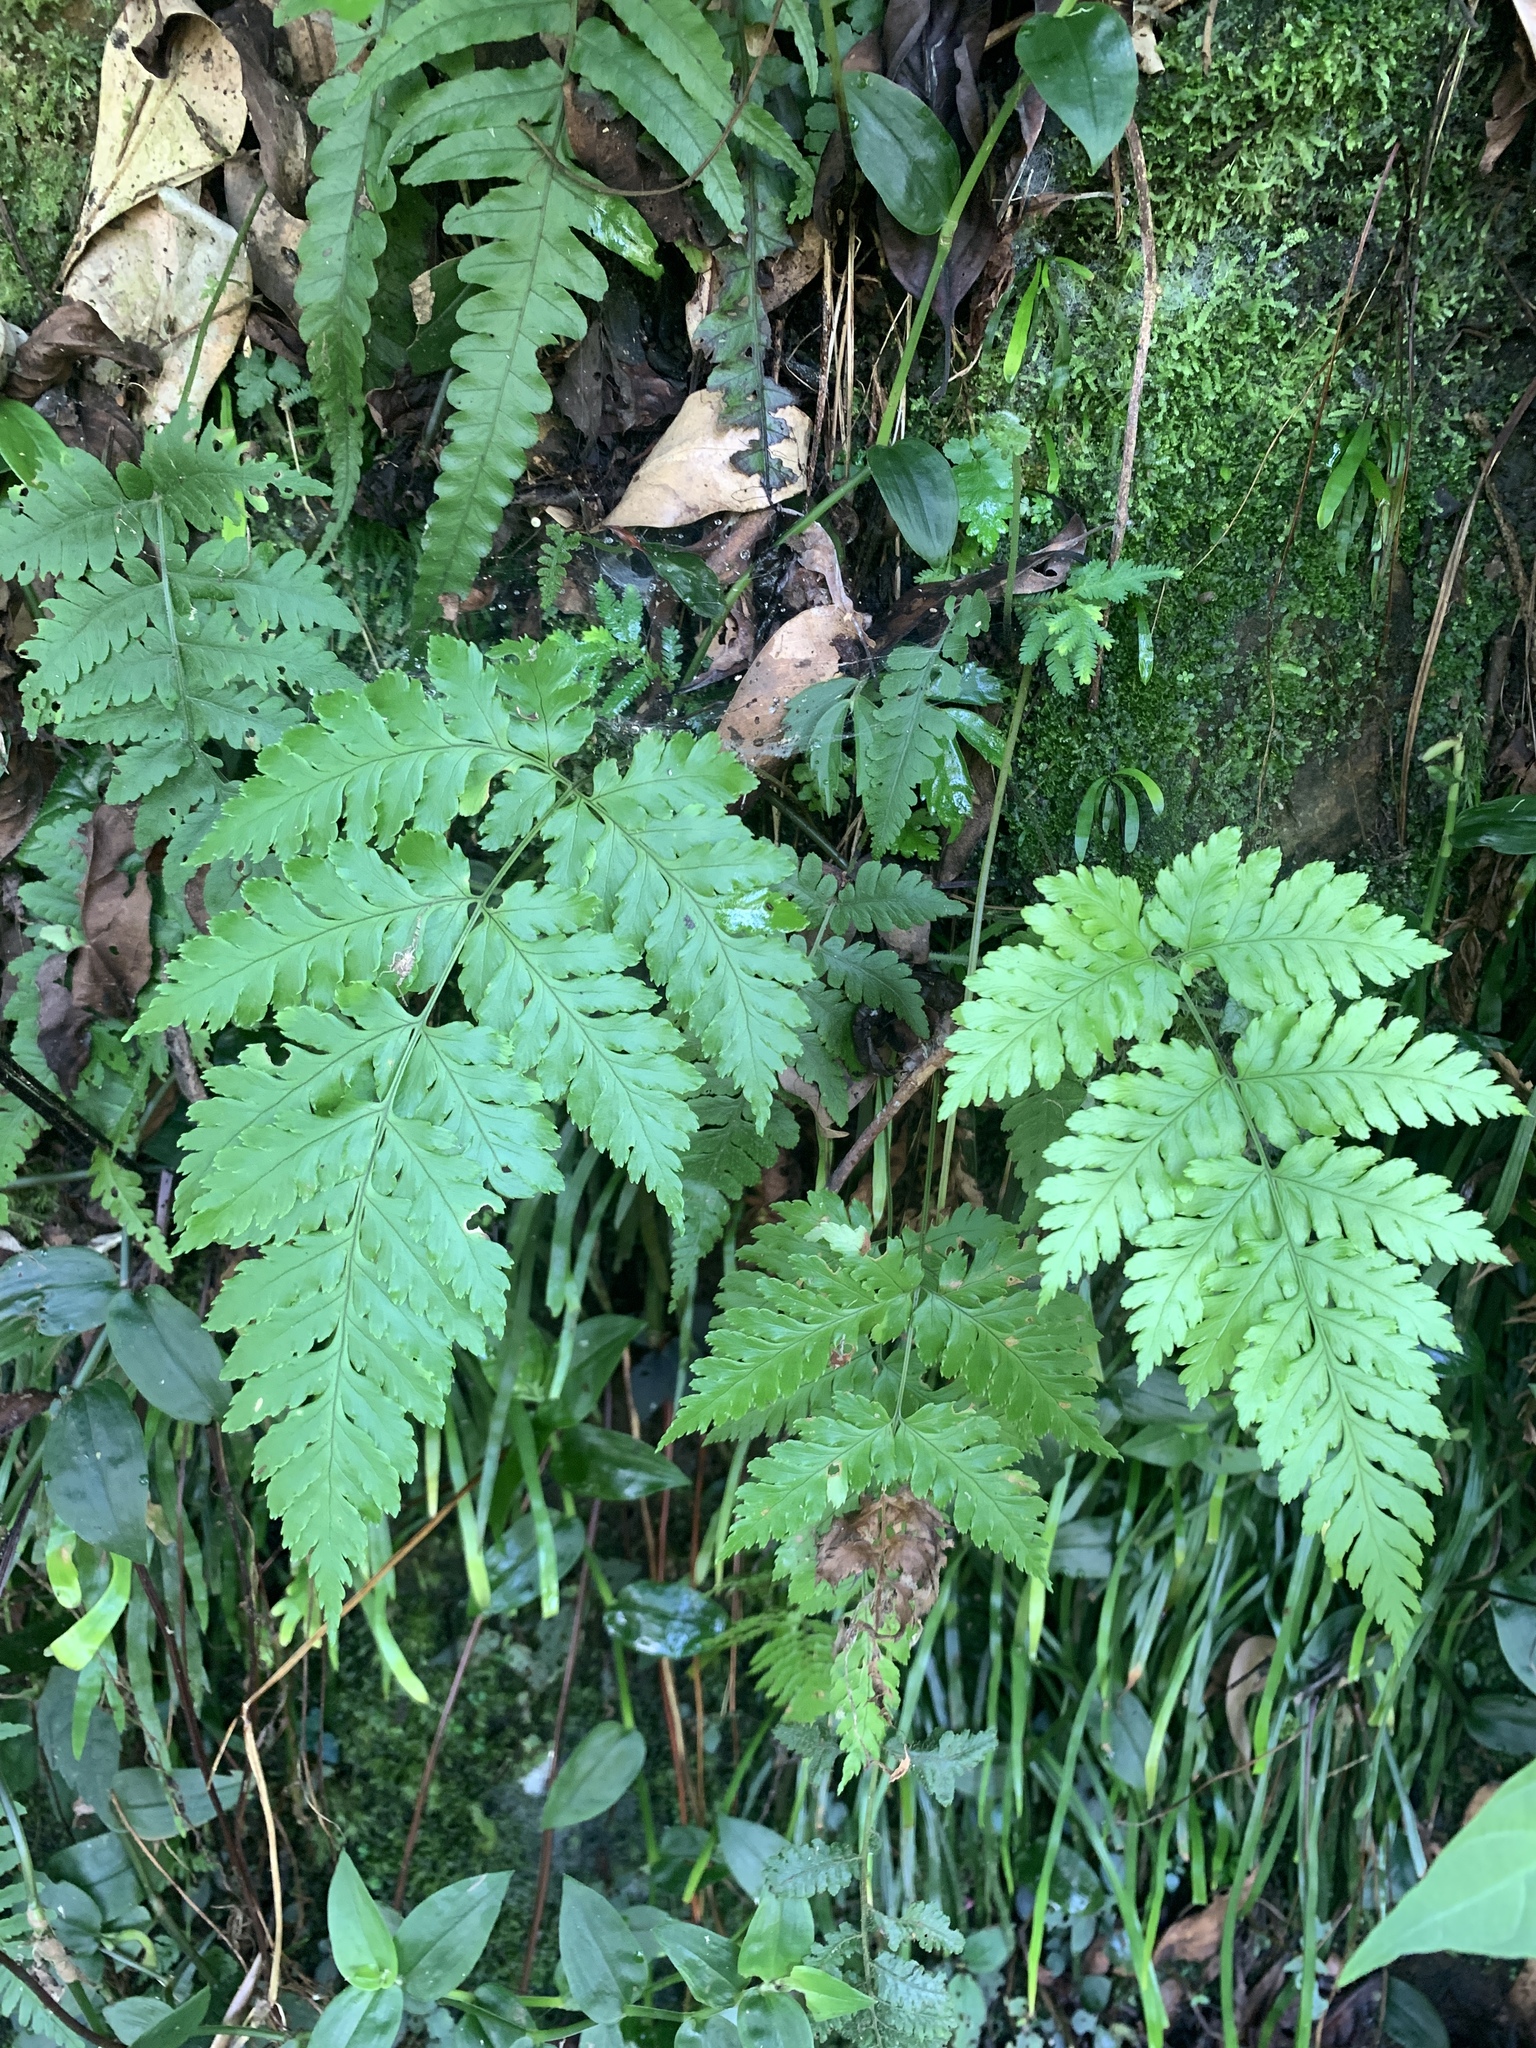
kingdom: Plantae
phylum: Tracheophyta
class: Polypodiopsida
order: Polypodiales
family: Dryopteridaceae
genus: Dryopteris
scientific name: Dryopteris sparsa
